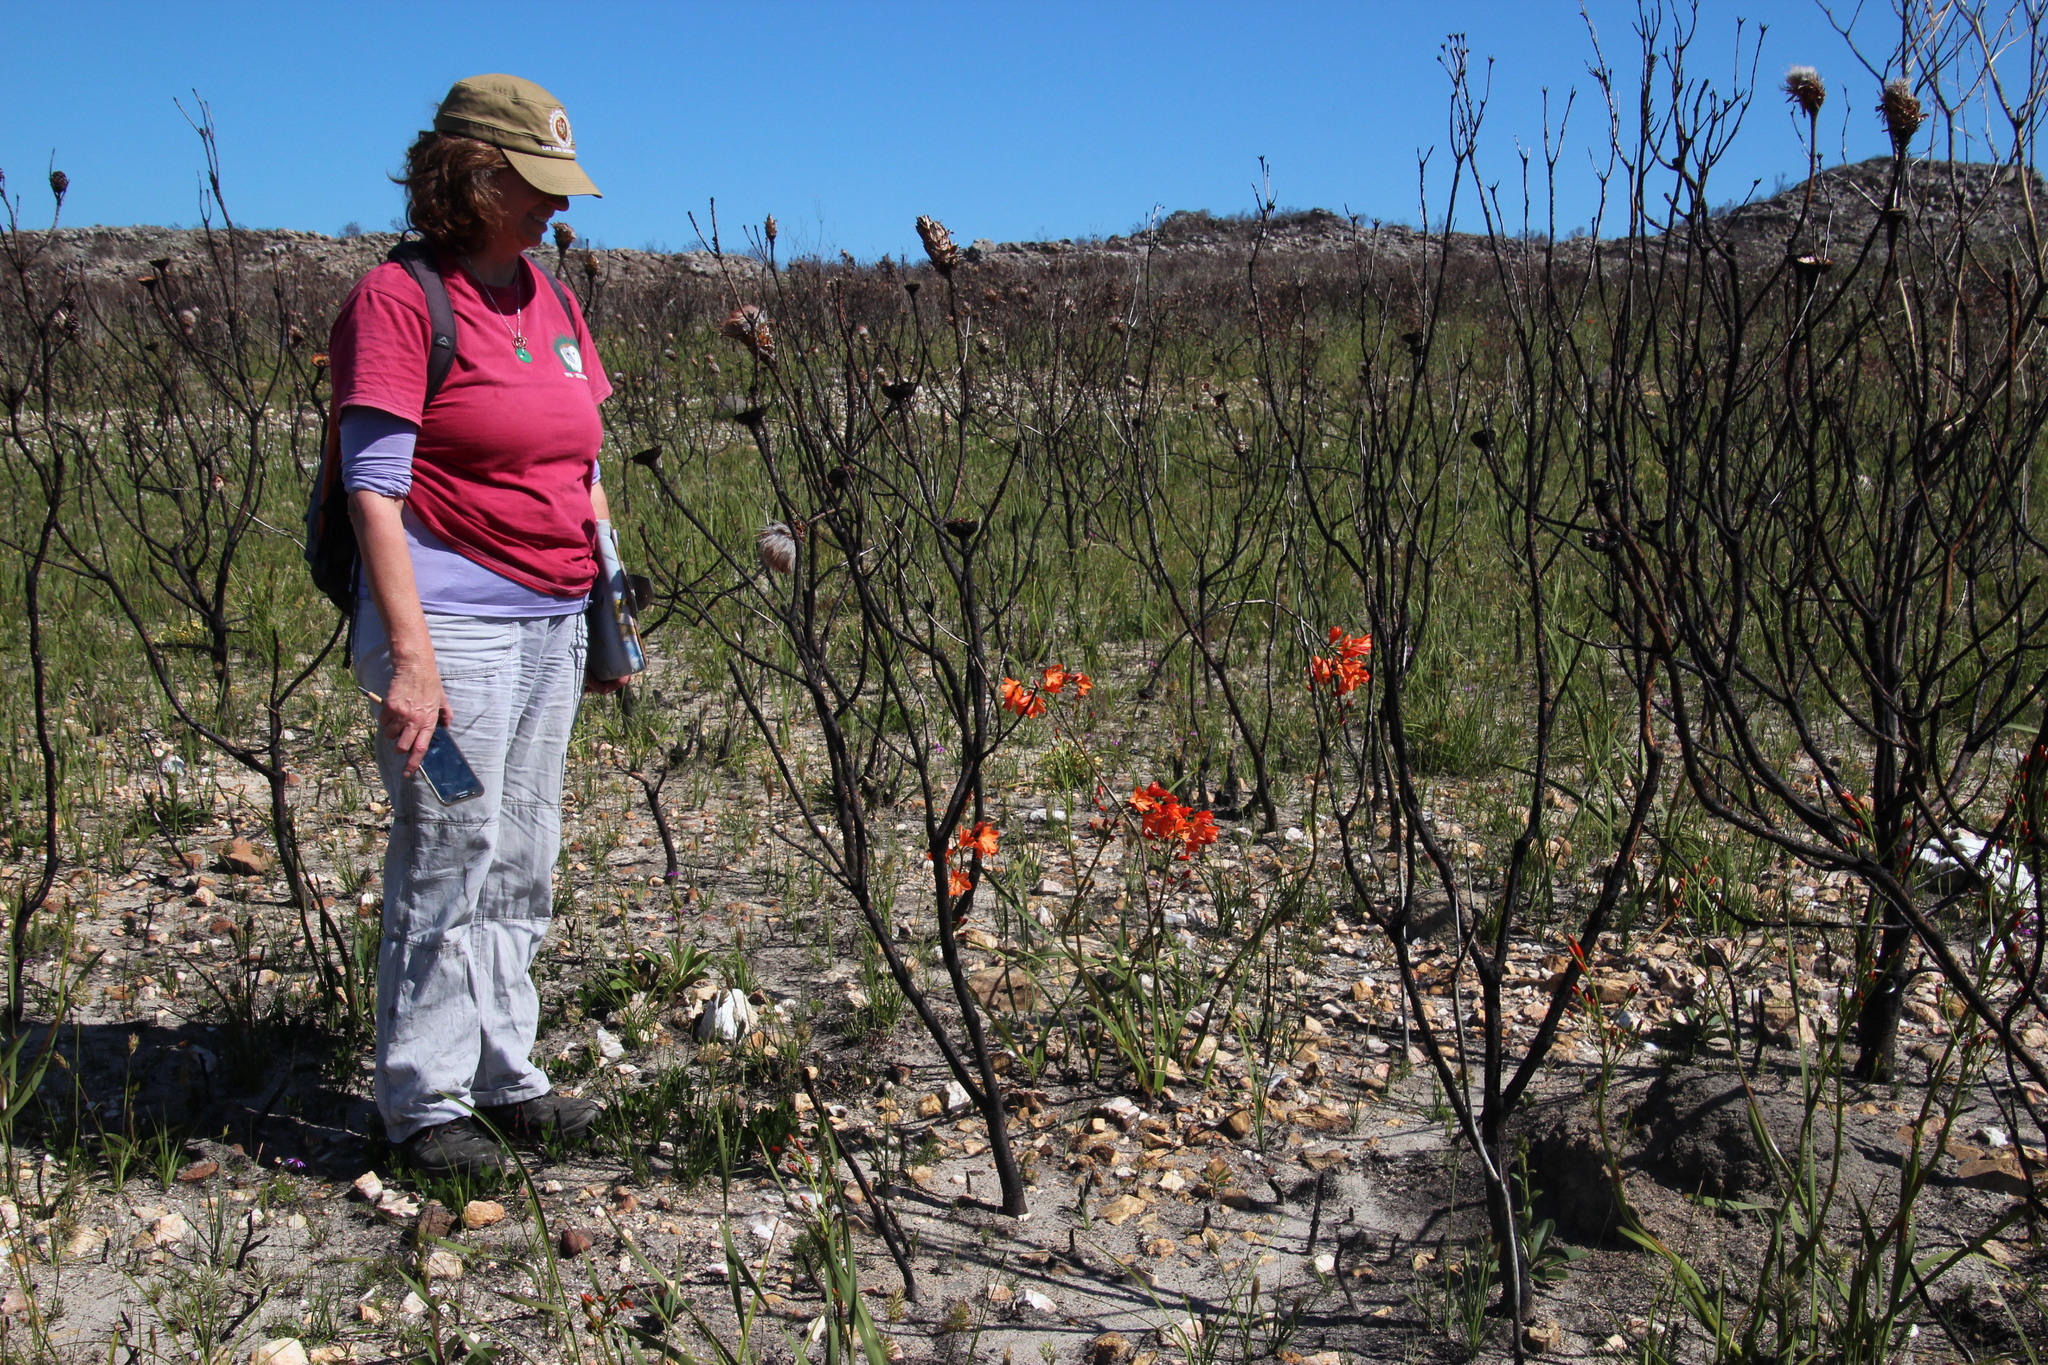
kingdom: Plantae
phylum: Tracheophyta
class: Liliopsida
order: Asparagales
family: Iridaceae
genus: Pillansia
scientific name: Pillansia templemannii
